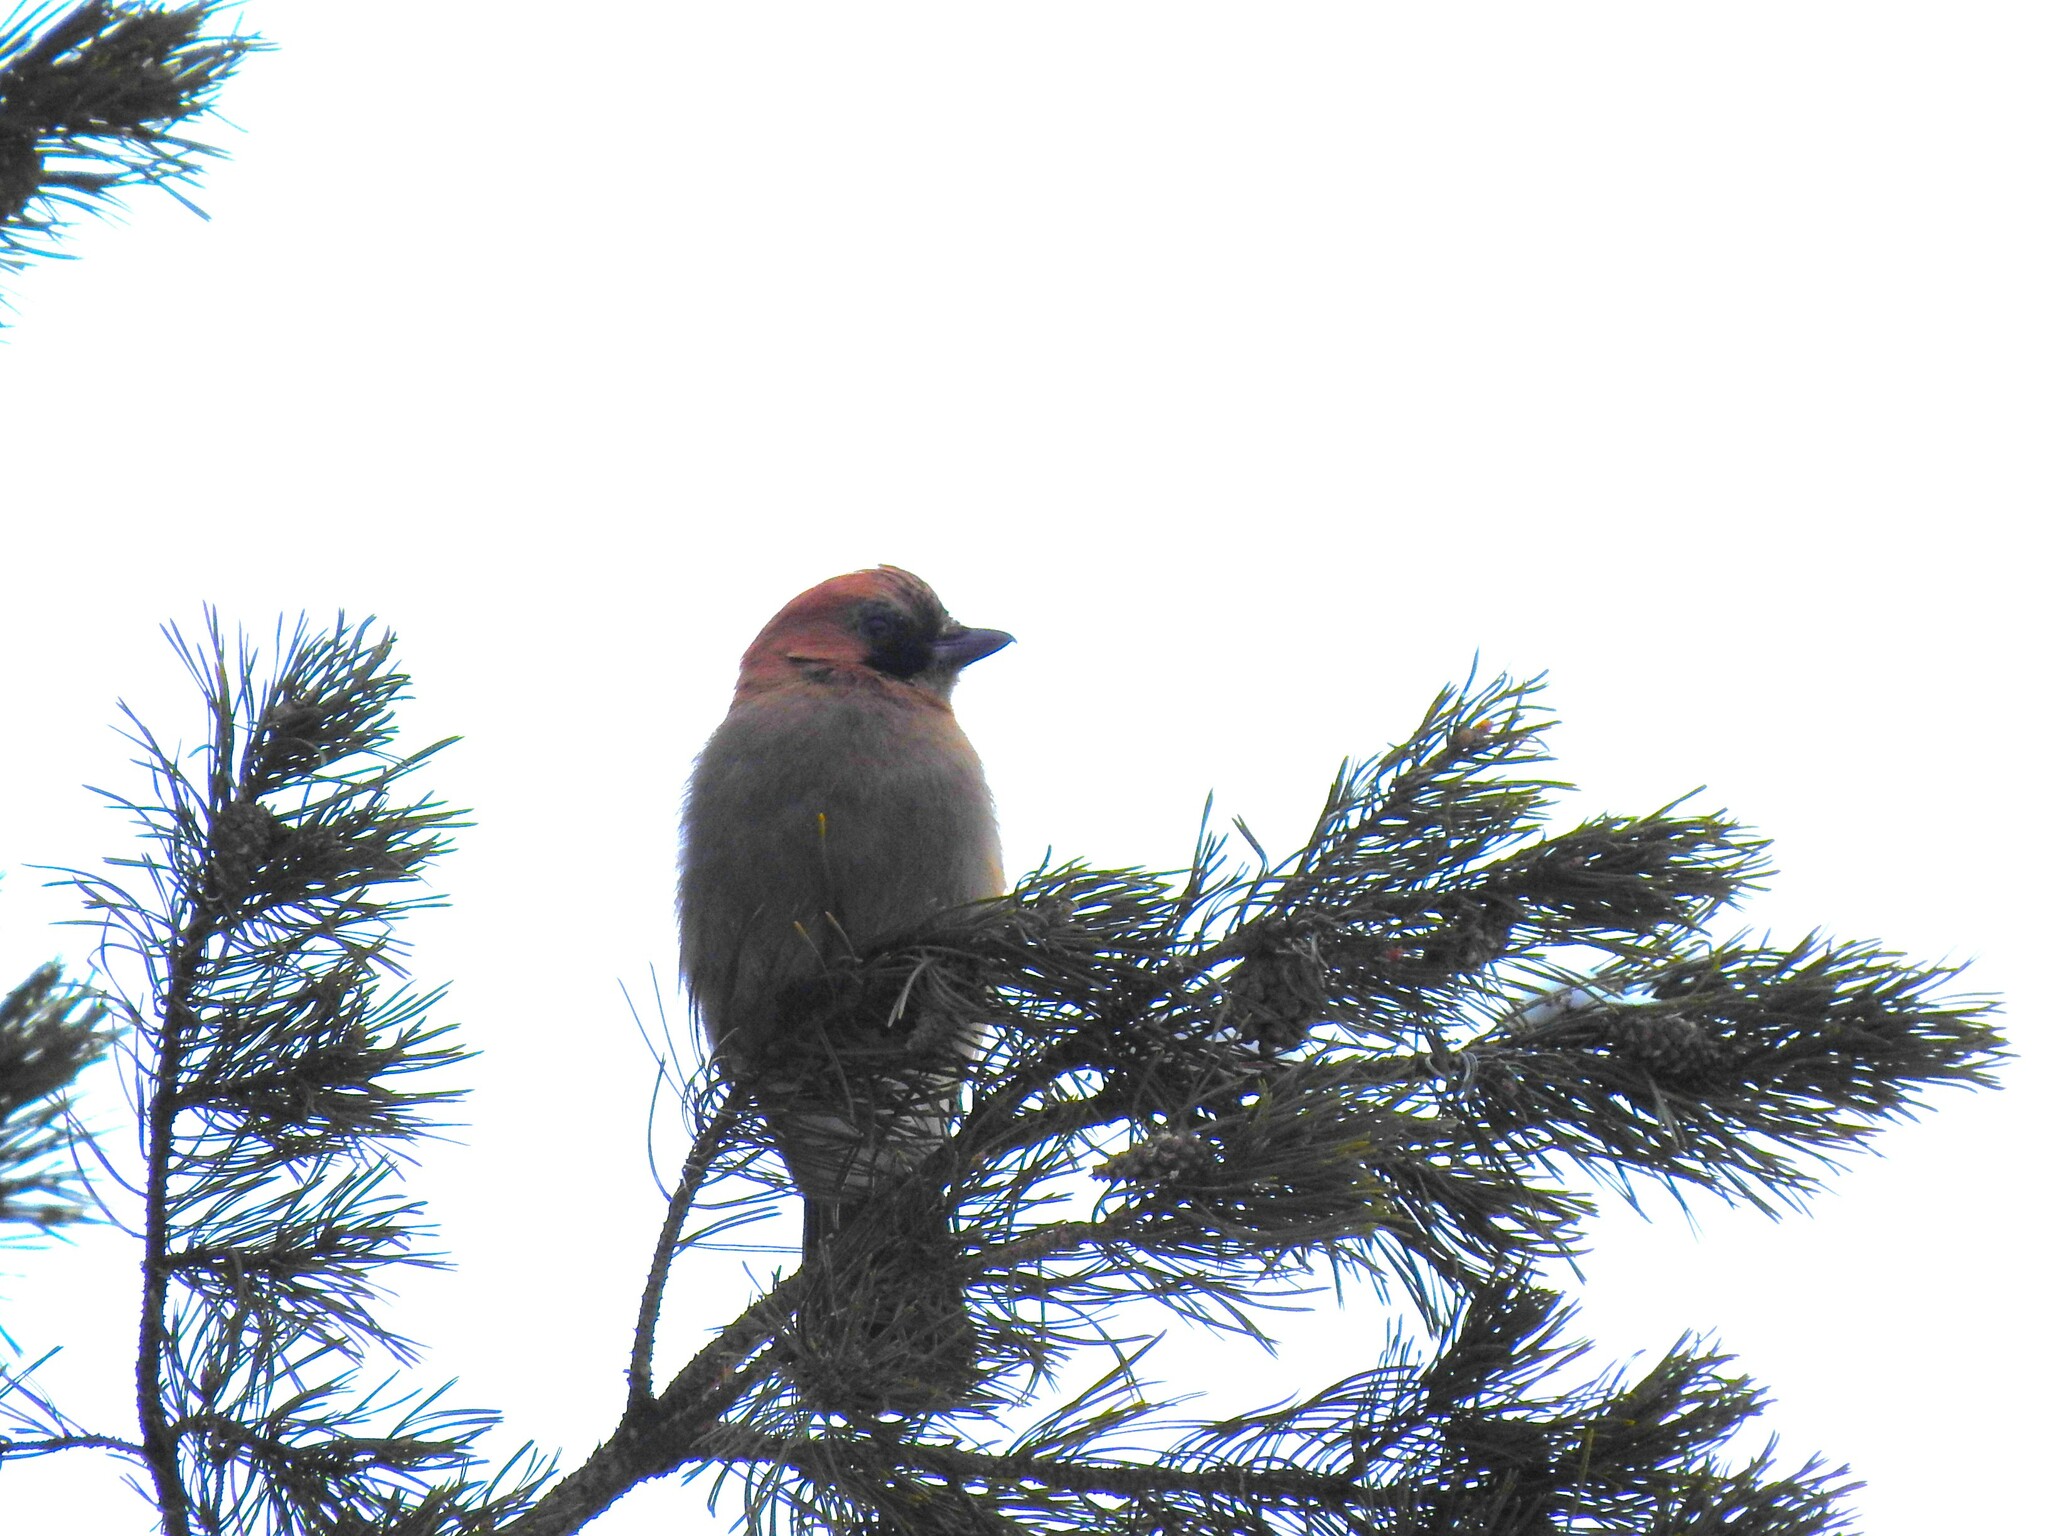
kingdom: Animalia
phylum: Chordata
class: Aves
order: Passeriformes
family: Corvidae
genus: Garrulus
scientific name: Garrulus glandarius
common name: Eurasian jay
